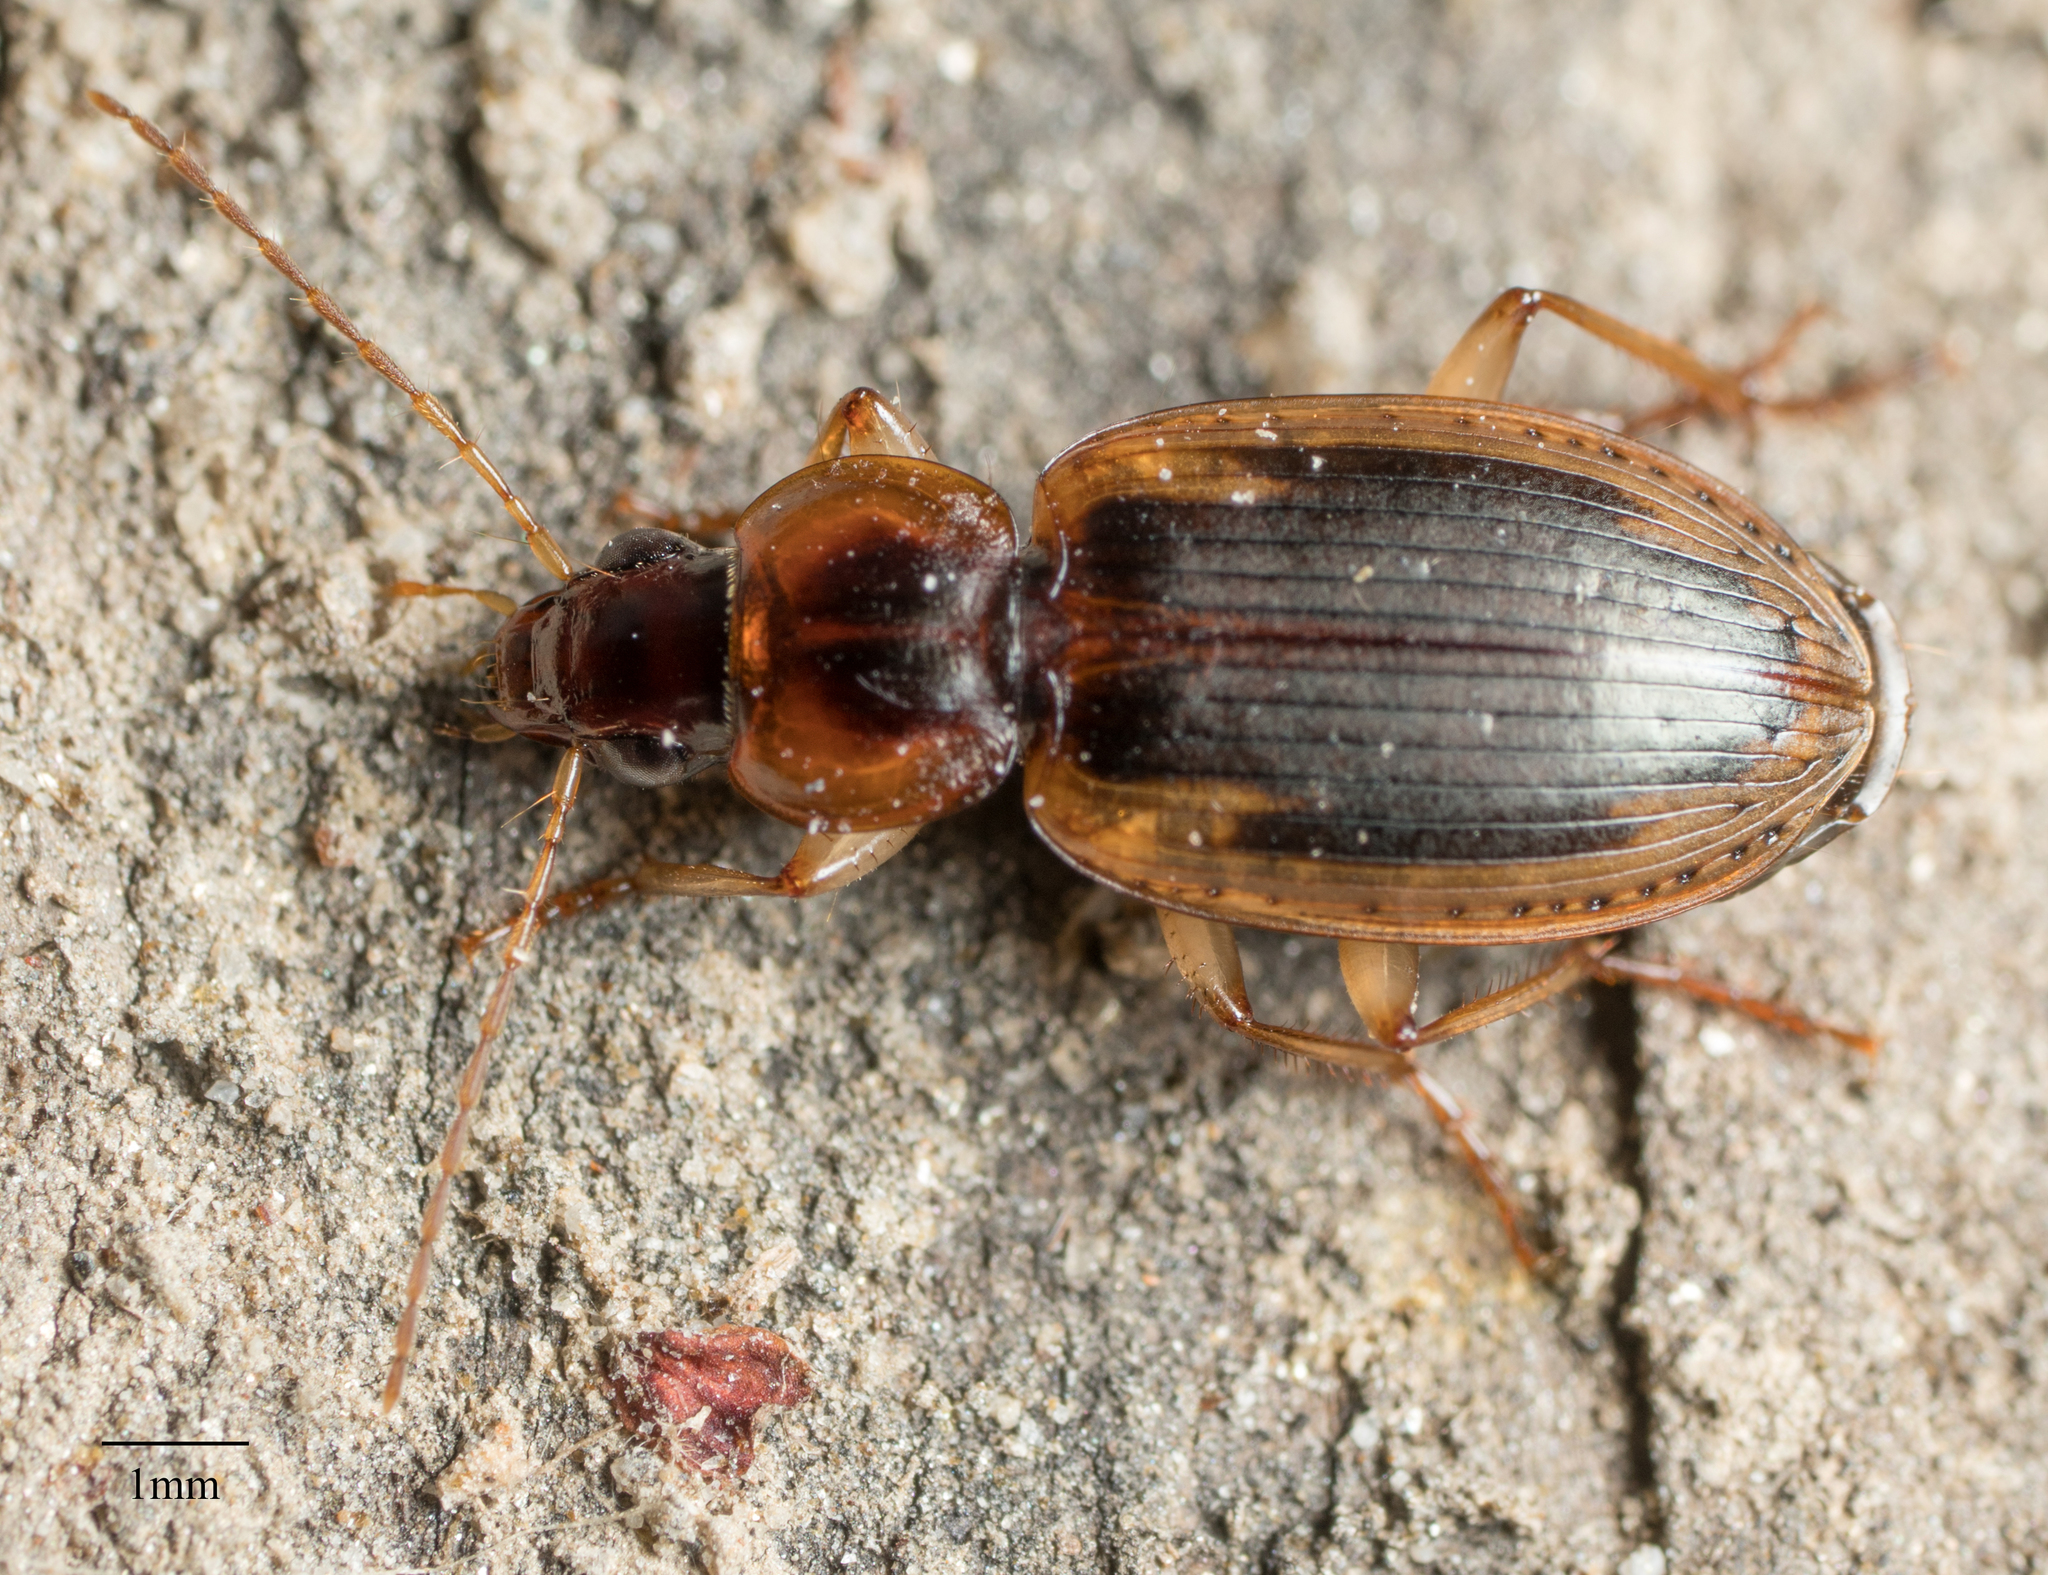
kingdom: Animalia
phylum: Arthropoda
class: Insecta
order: Coleoptera
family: Carabidae
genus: Tanystoma
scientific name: Tanystoma maculicolle
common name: Tule beetle
